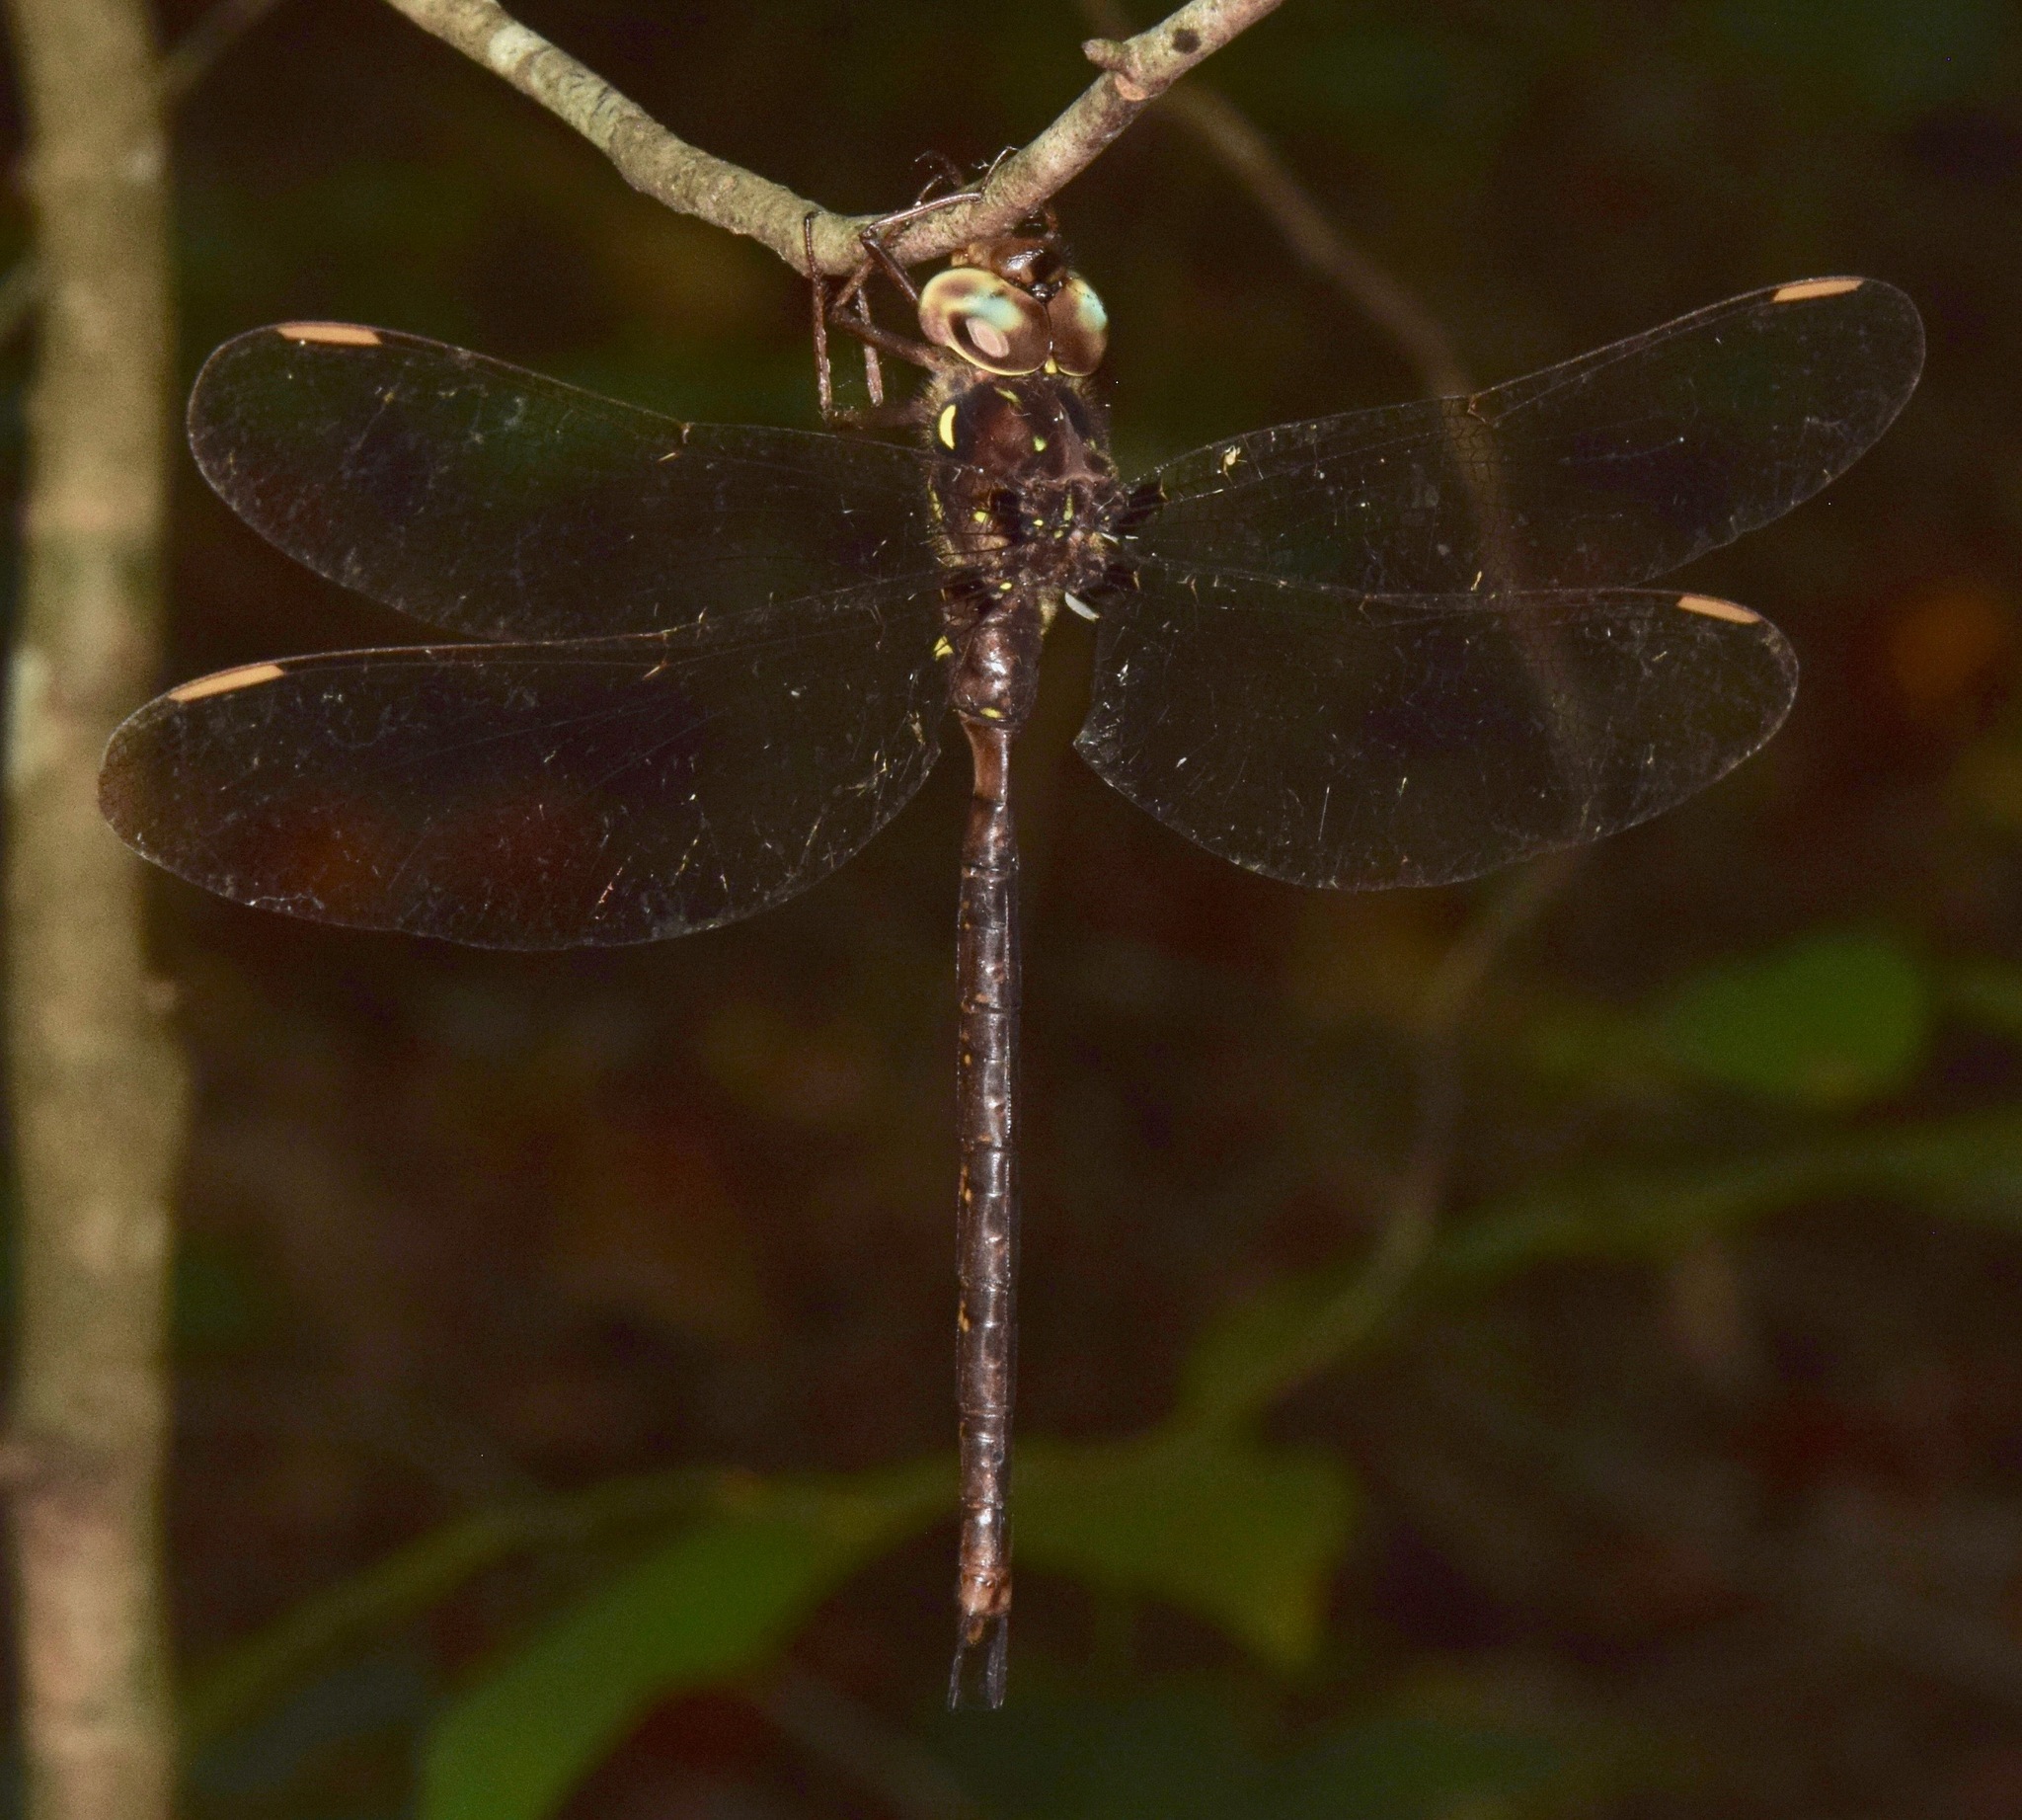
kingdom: Animalia
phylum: Arthropoda
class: Insecta
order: Odonata
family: Aeshnidae
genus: Boyeria
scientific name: Boyeria vinosa
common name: Fawn darner
